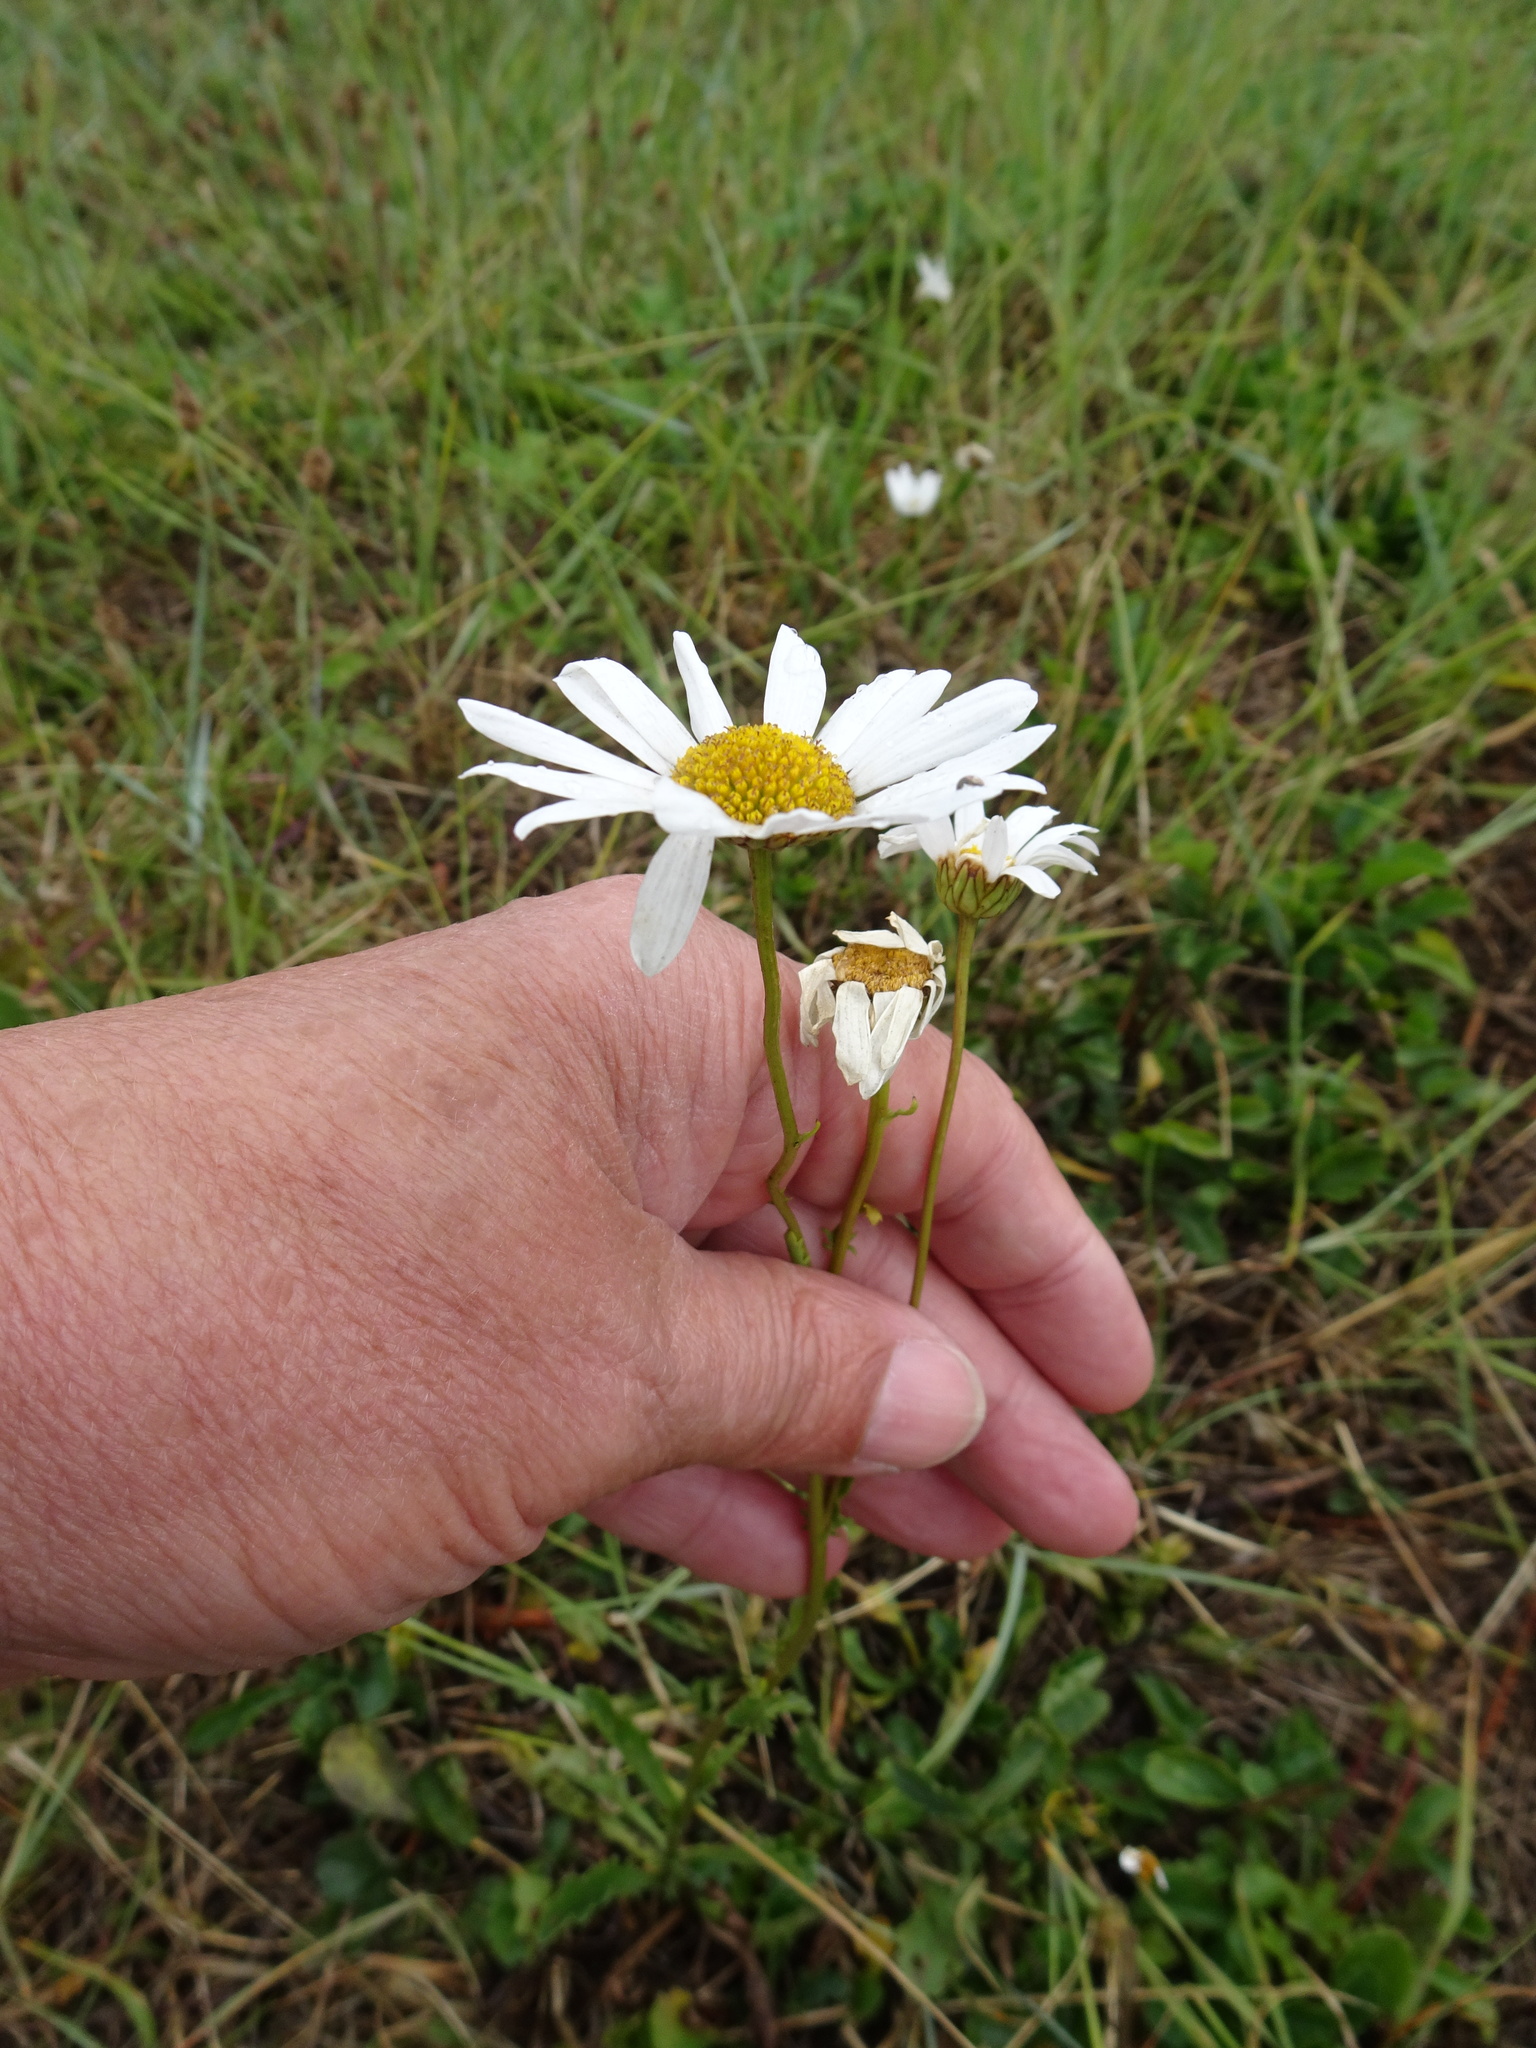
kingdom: Plantae
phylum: Tracheophyta
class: Magnoliopsida
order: Asterales
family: Asteraceae
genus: Leucanthemum
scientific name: Leucanthemum vulgare
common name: Oxeye daisy
